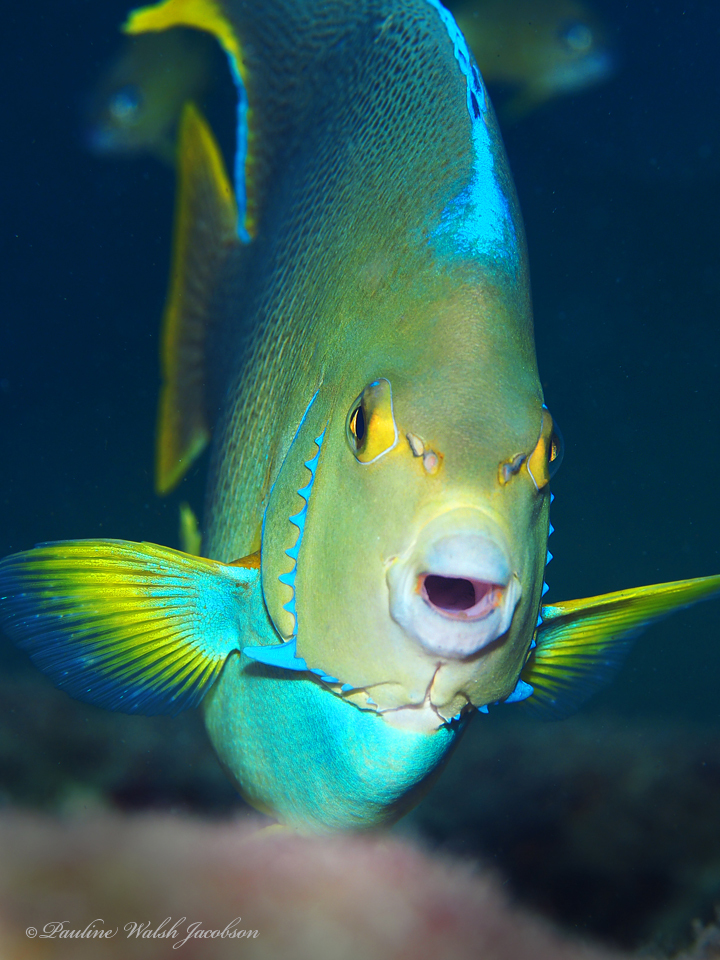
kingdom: Animalia
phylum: Chordata
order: Perciformes
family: Pomacanthidae
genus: Holacanthus
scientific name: Holacanthus bermudensis
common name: Blue angelfish
